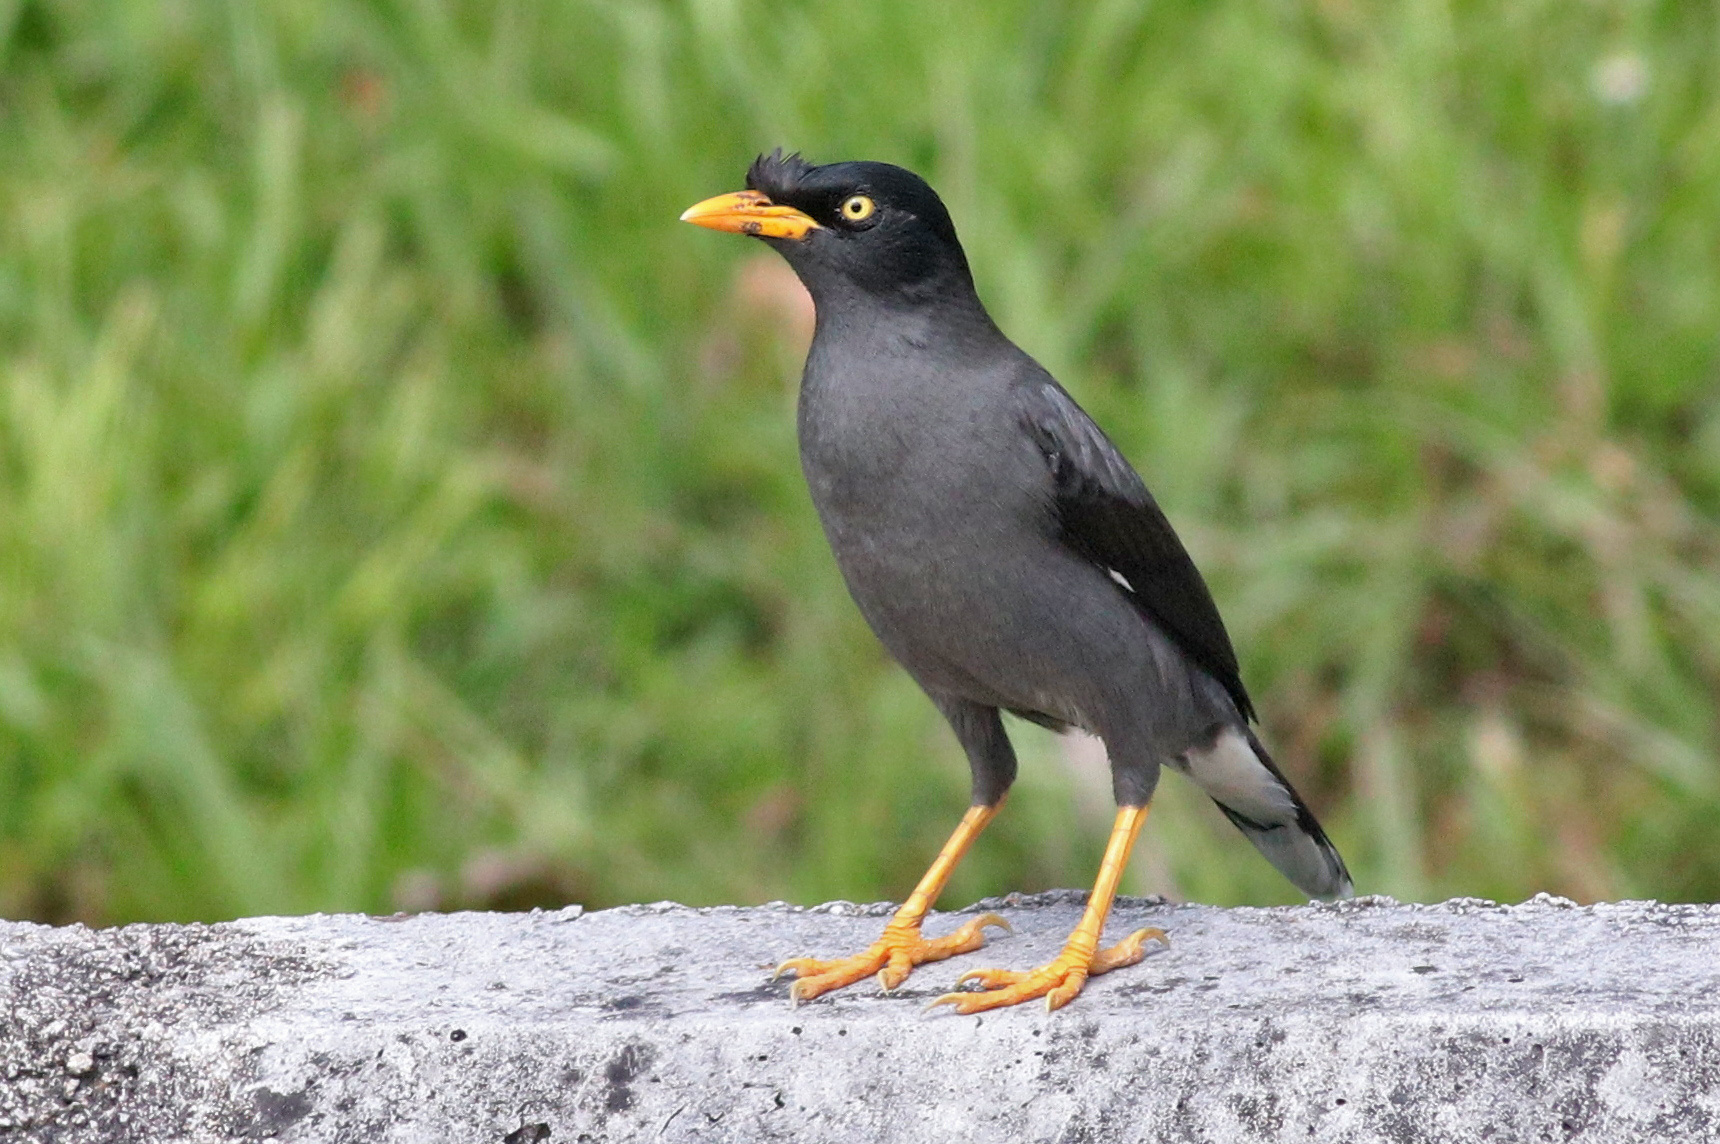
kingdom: Animalia
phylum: Chordata
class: Aves
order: Passeriformes
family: Sturnidae
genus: Acridotheres
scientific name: Acridotheres javanicus
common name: Javan myna
